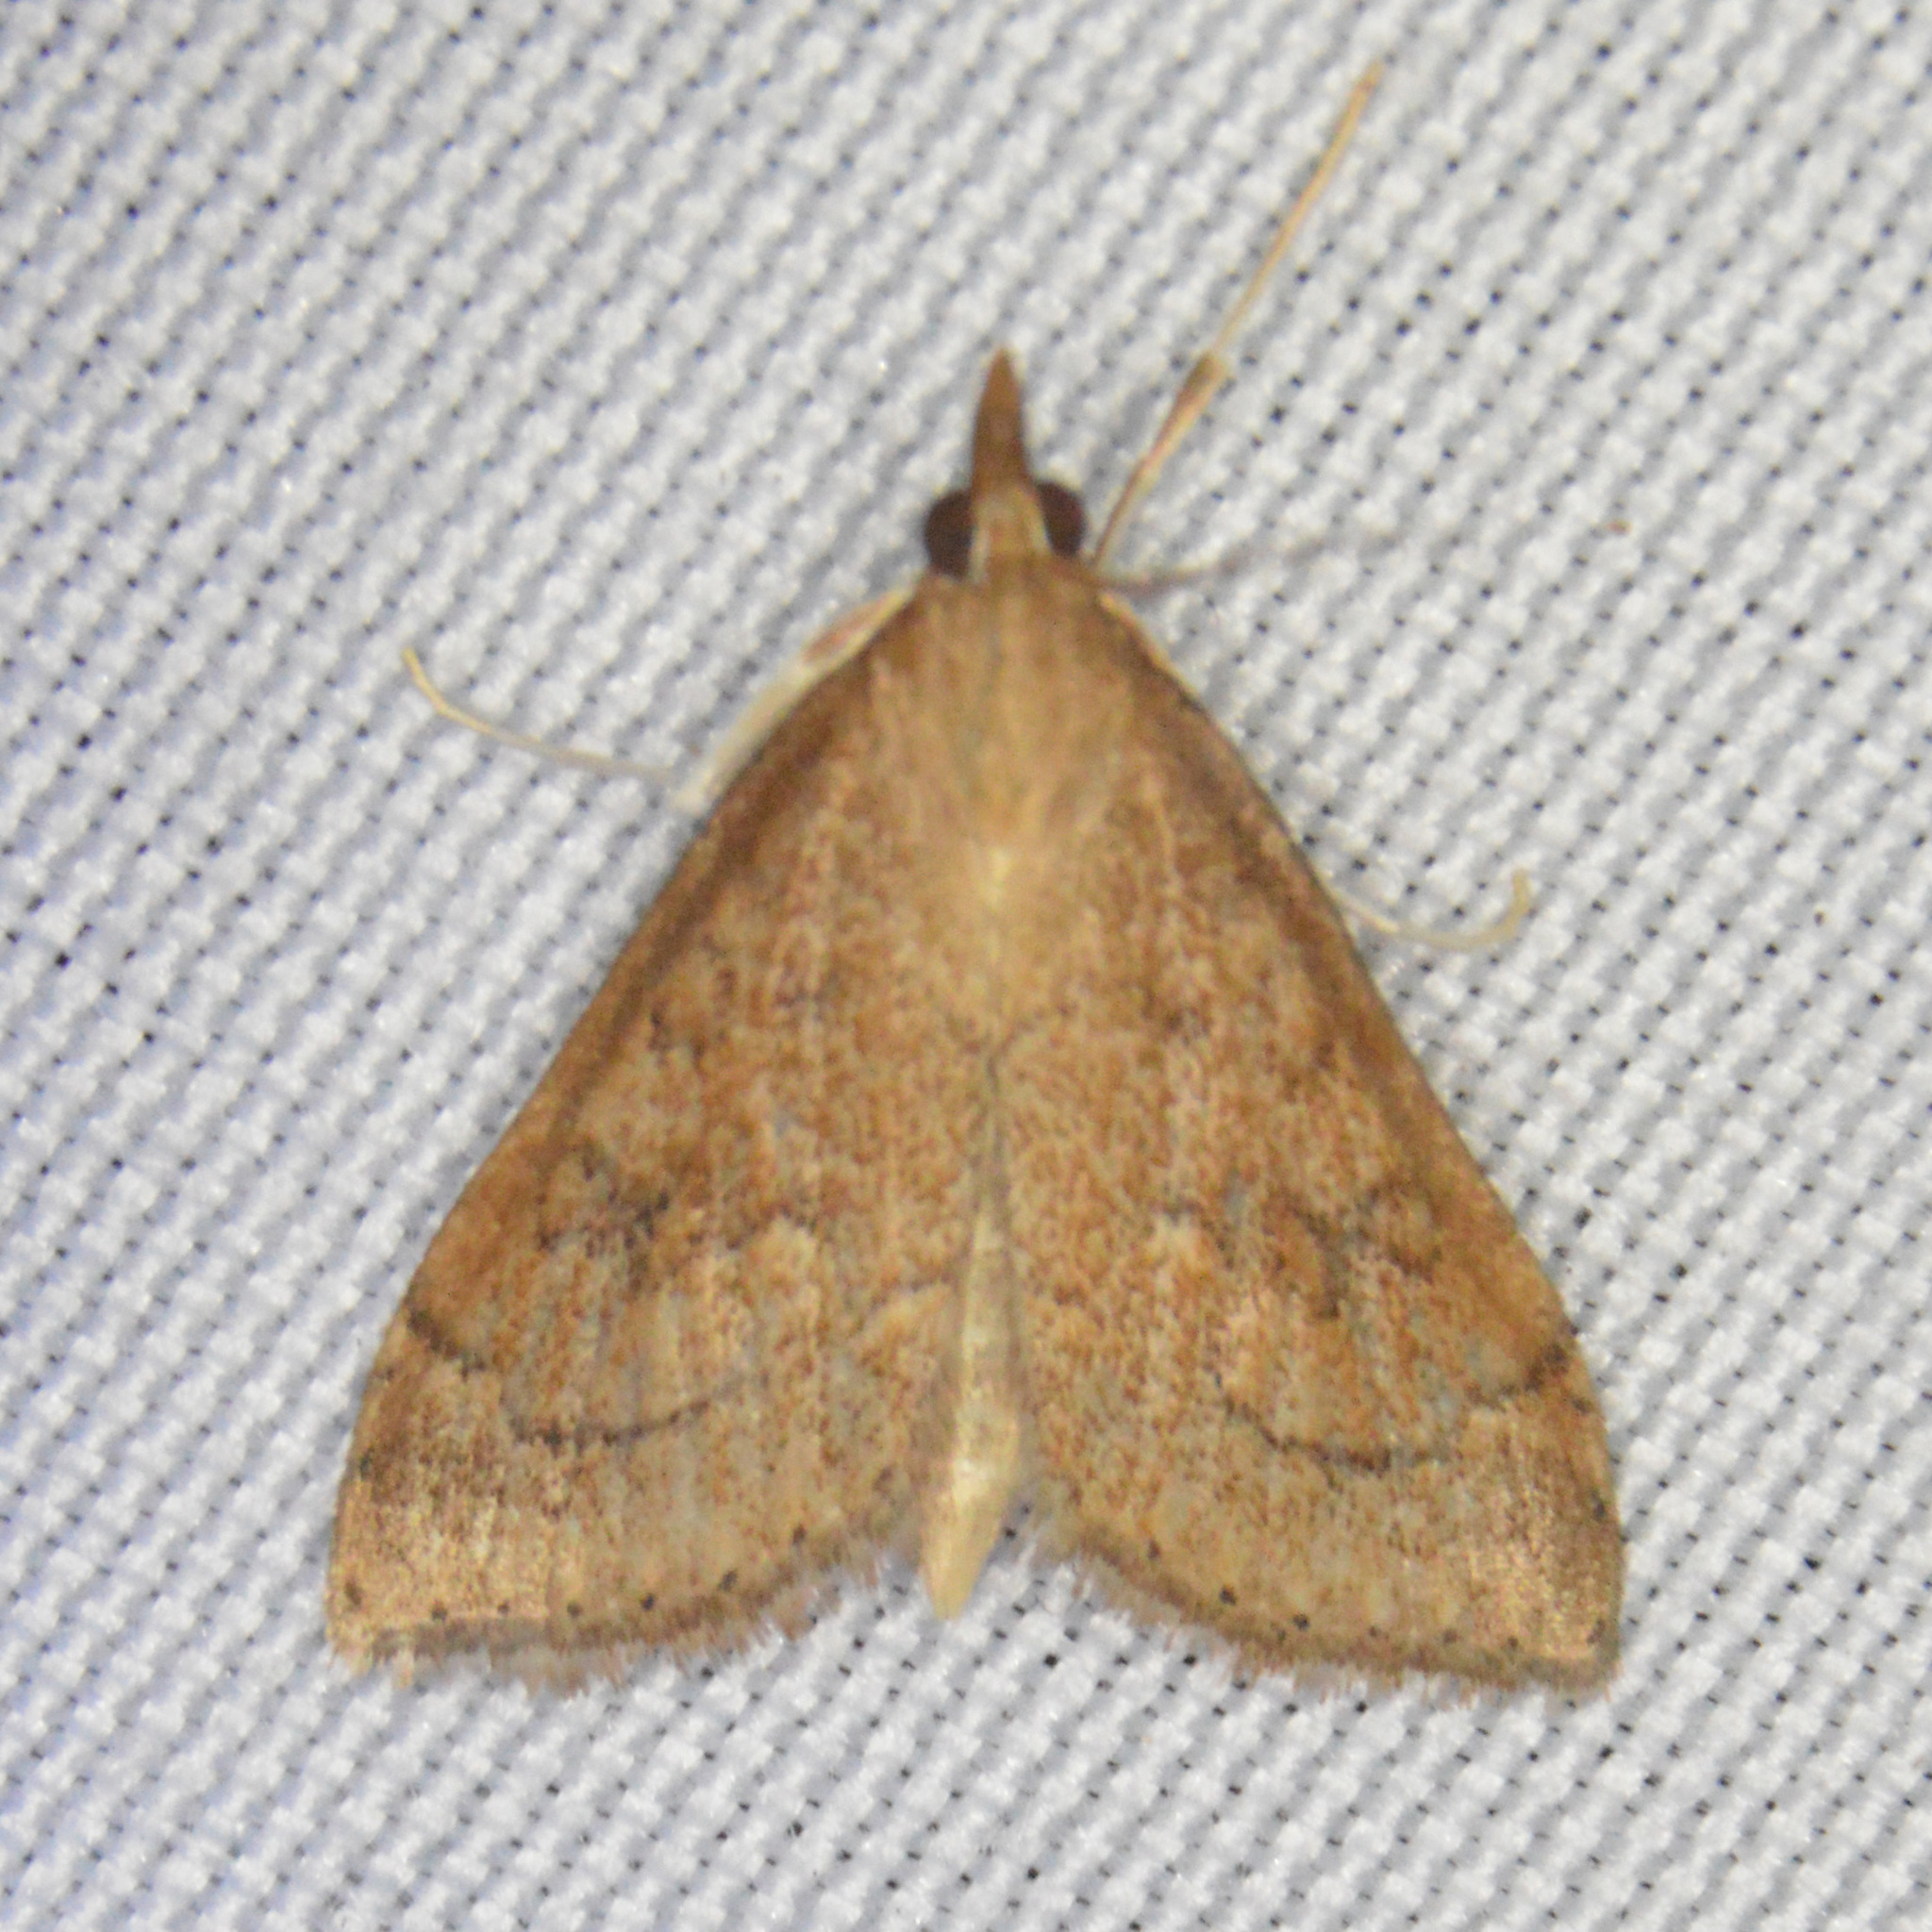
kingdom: Animalia
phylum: Arthropoda
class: Insecta
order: Lepidoptera
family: Crambidae
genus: Udea
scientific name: Udea rubigalis
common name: Celery leaftier moth
